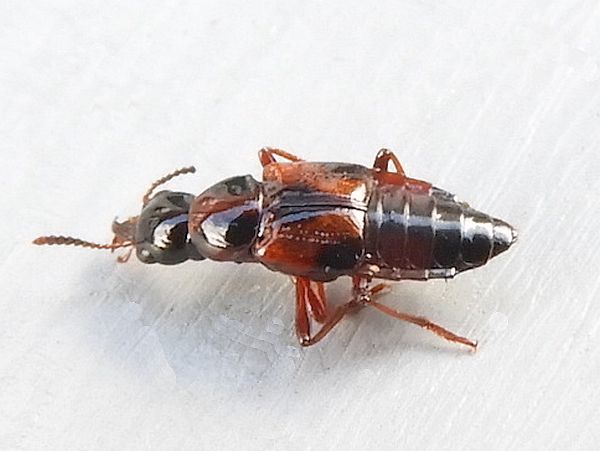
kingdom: Animalia
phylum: Arthropoda
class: Insecta
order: Coleoptera
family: Staphylinidae
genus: Pseudoxyporus
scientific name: Pseudoxyporus quinquemaculatus
